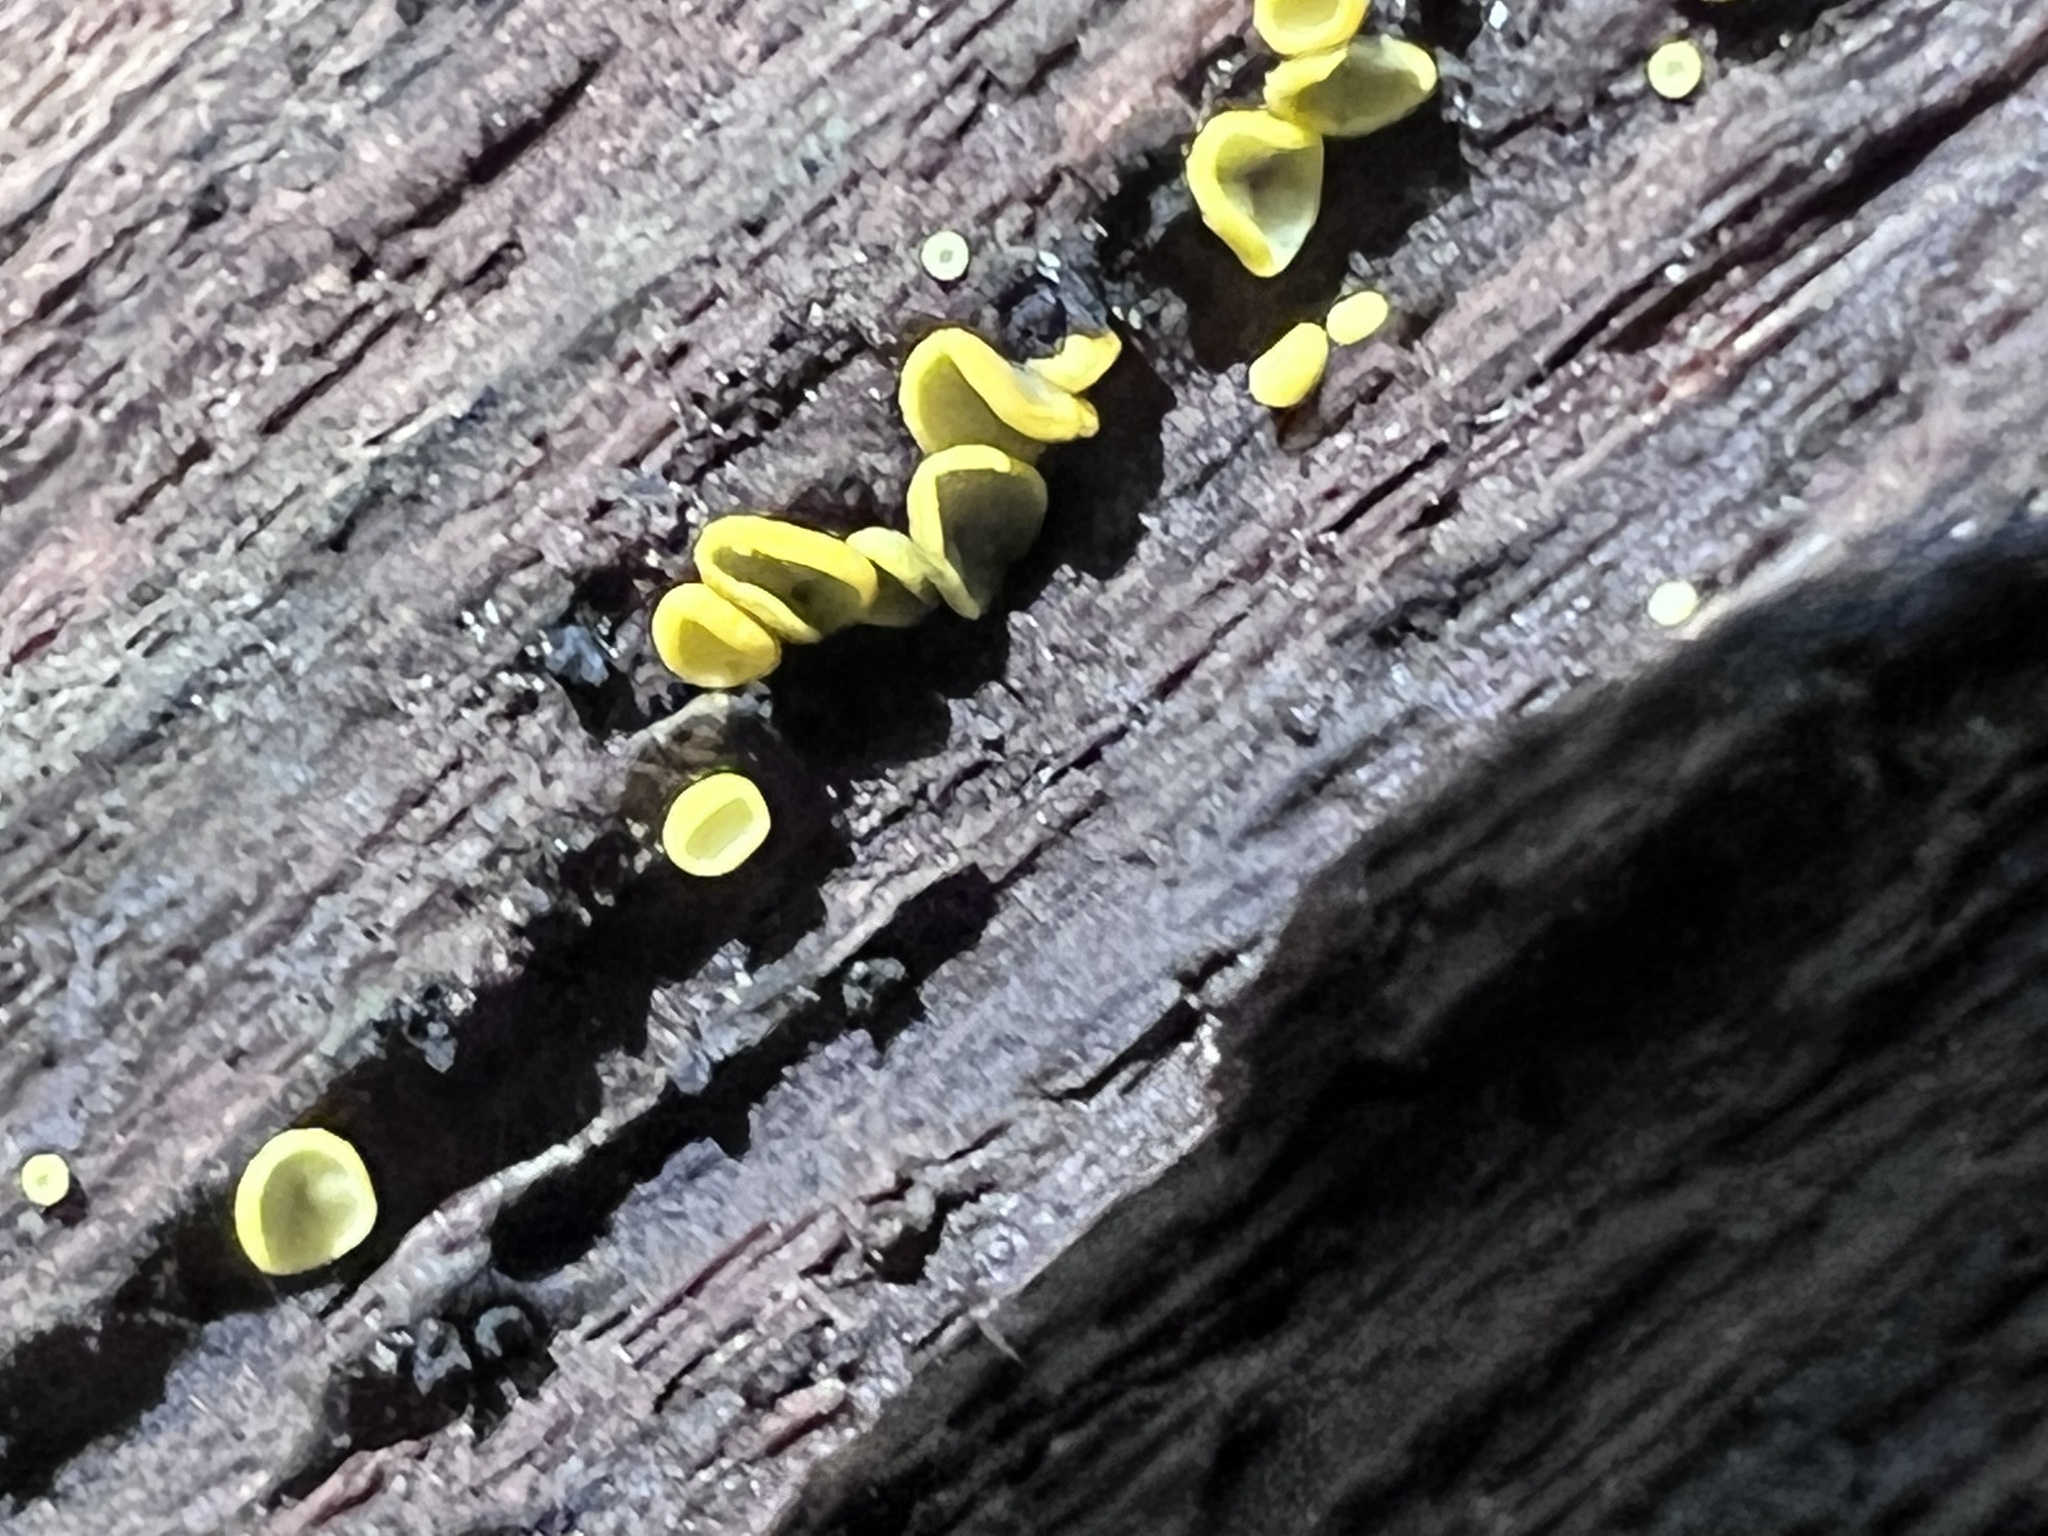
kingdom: Fungi
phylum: Ascomycota
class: Leotiomycetes
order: Helotiales
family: Chlorospleniaceae
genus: Chlorosplenium
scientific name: Chlorosplenium chlora
